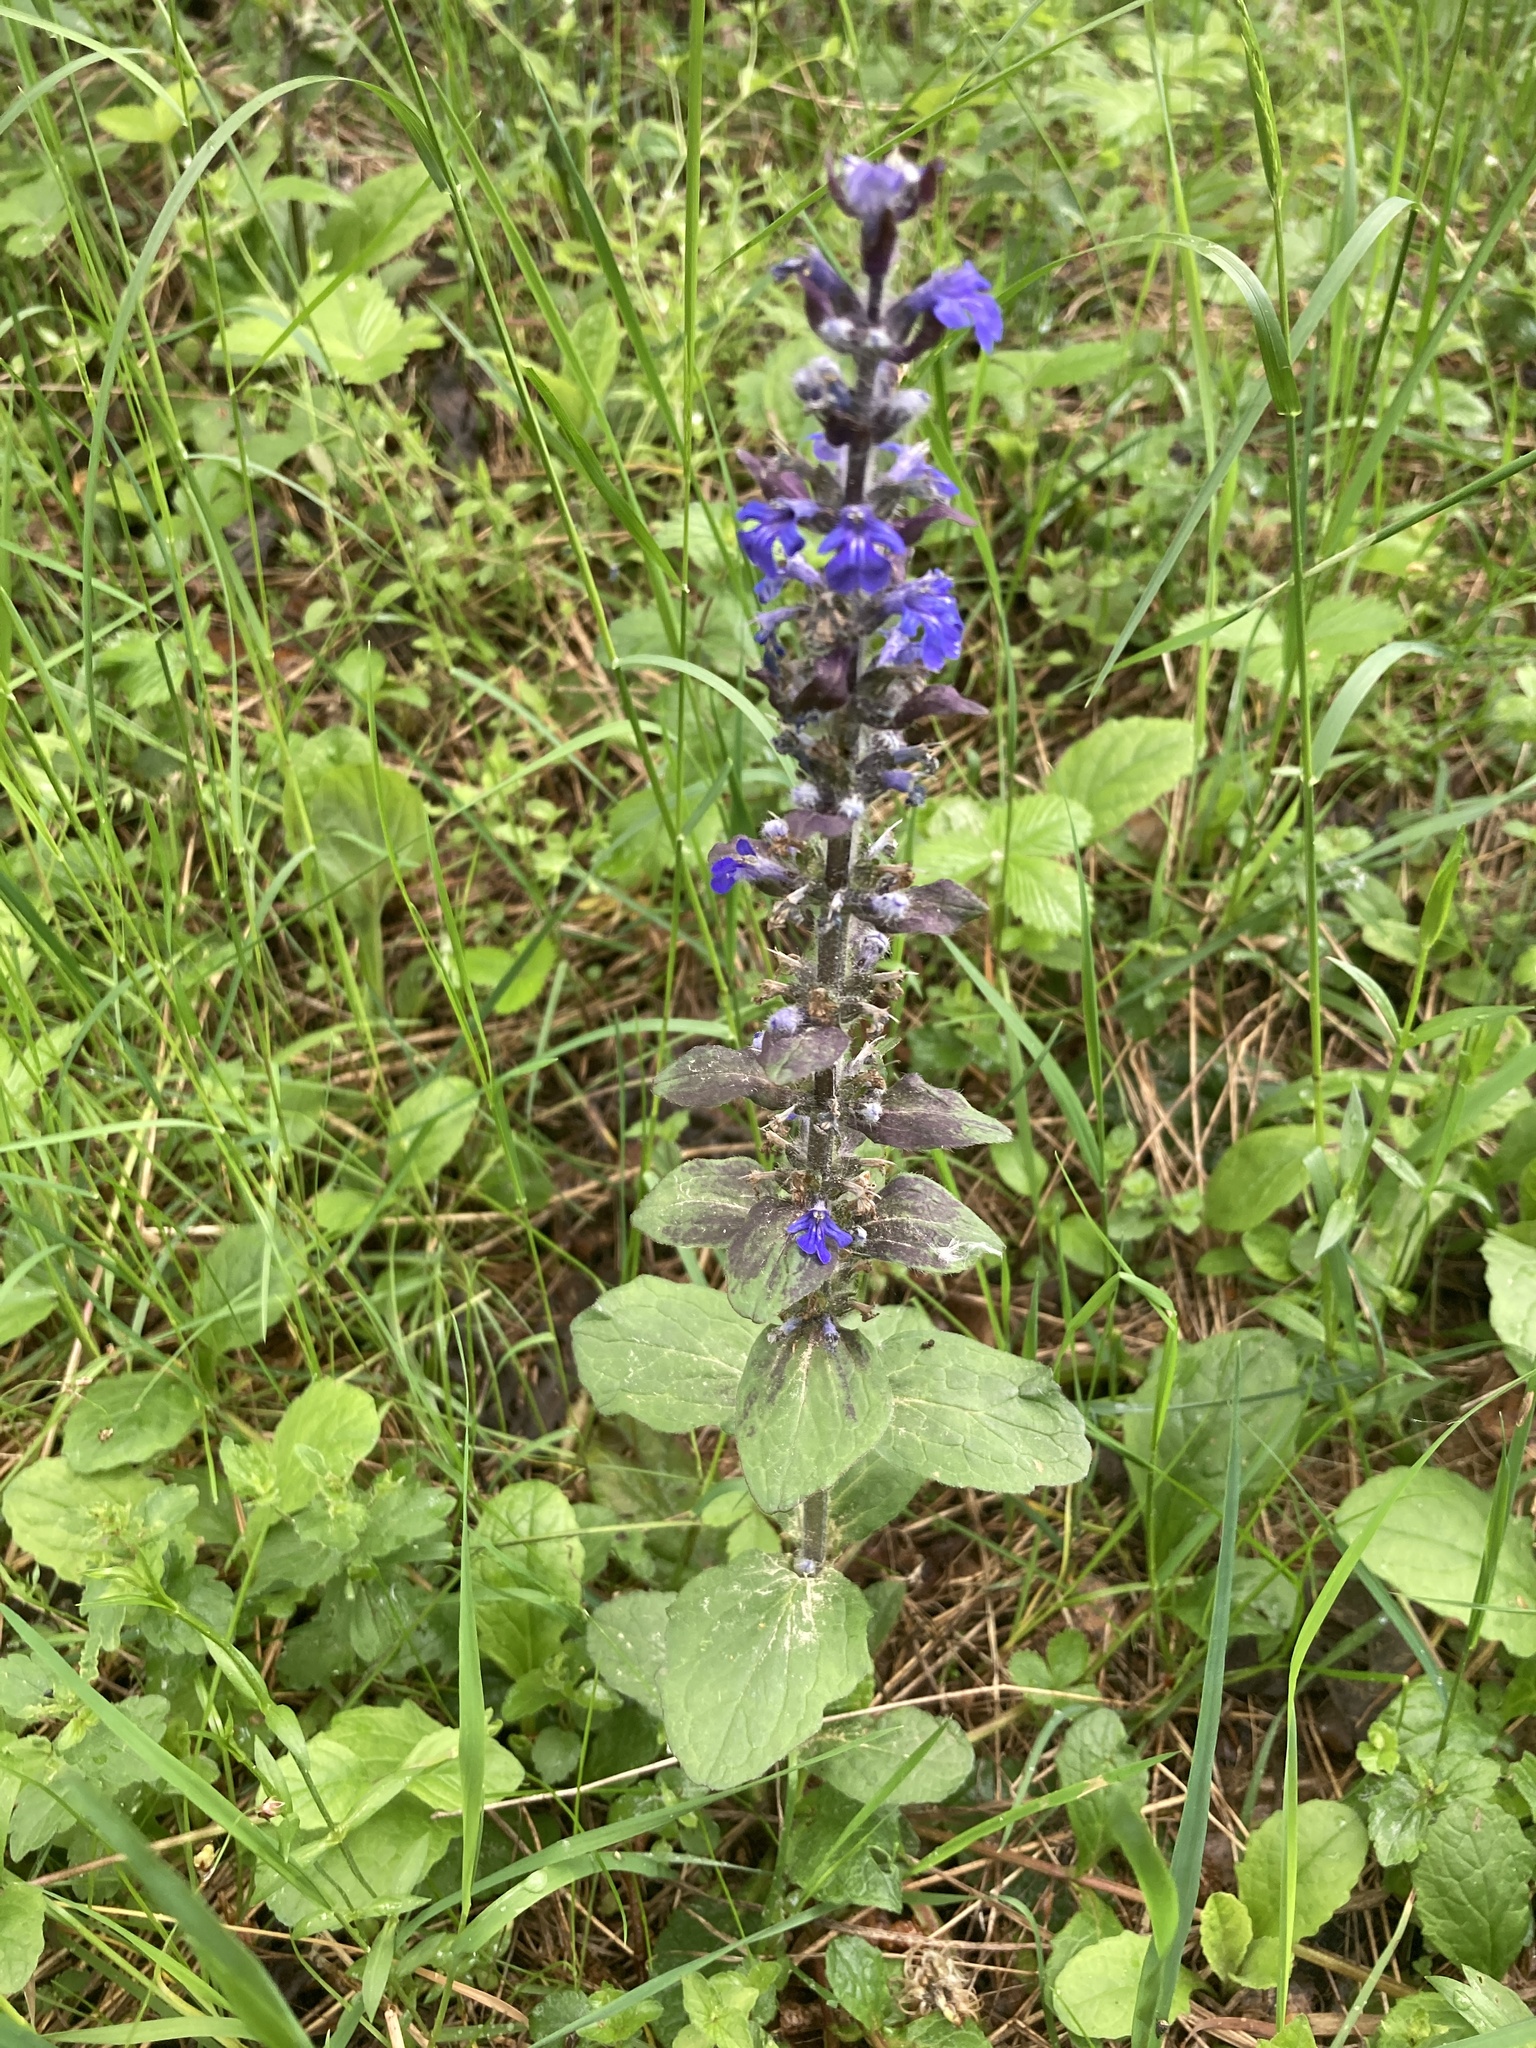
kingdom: Plantae
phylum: Tracheophyta
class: Magnoliopsida
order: Lamiales
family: Lamiaceae
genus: Ajuga
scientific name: Ajuga reptans
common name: Bugle
